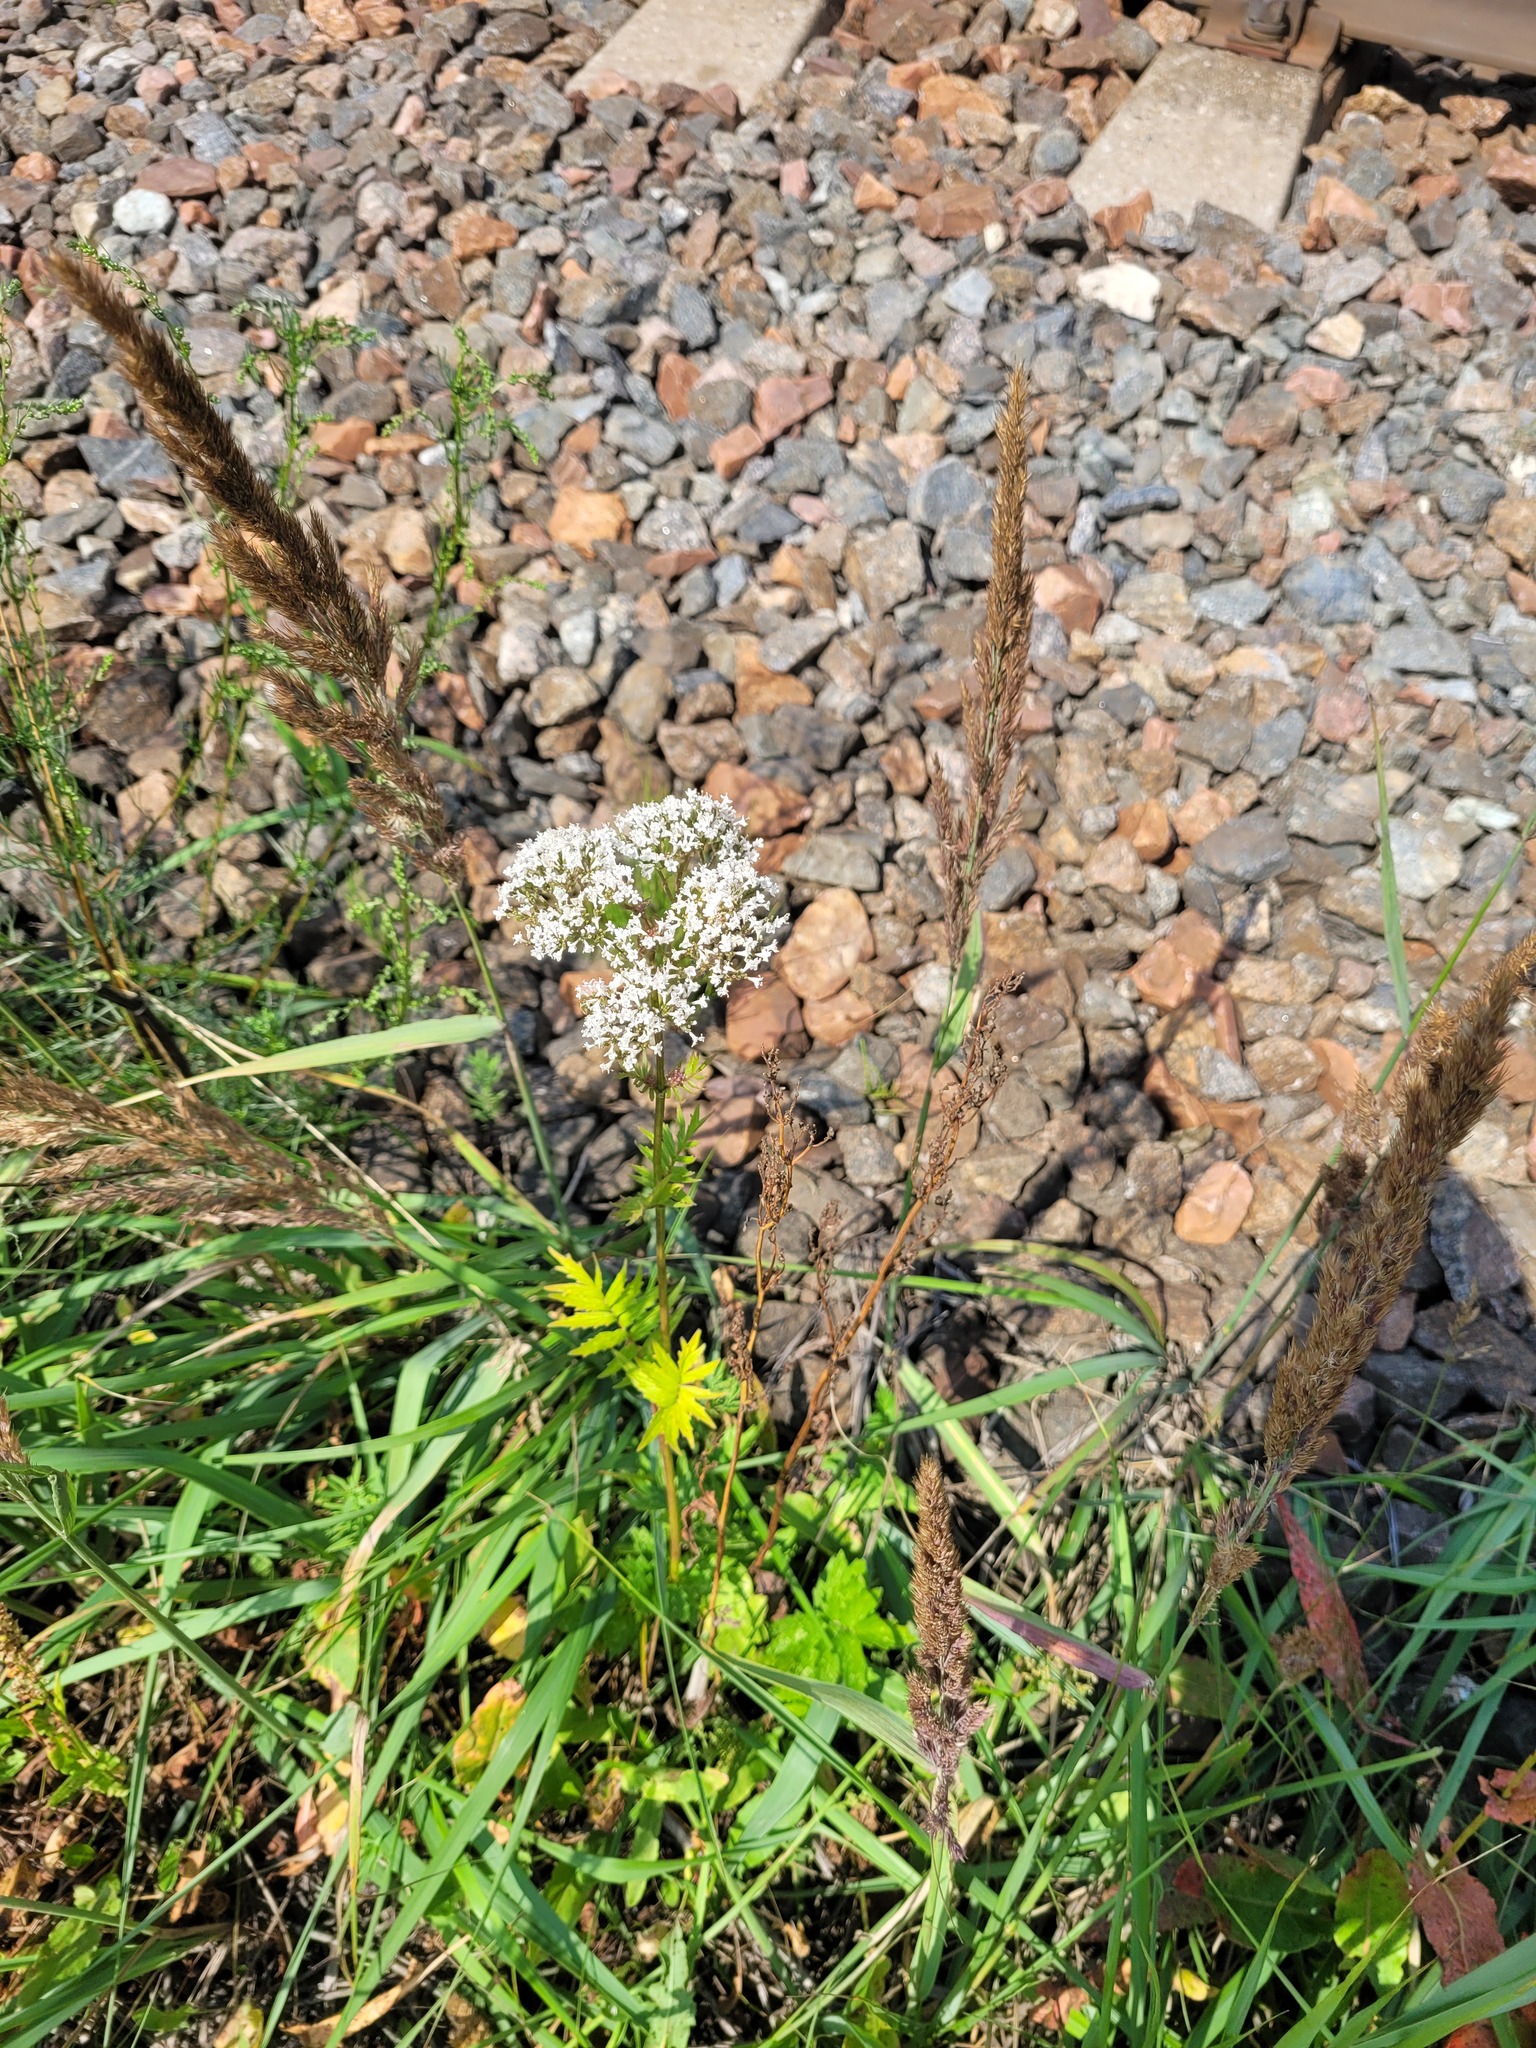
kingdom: Plantae
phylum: Tracheophyta
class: Magnoliopsida
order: Dipsacales
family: Caprifoliaceae
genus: Valeriana
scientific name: Valeriana officinalis
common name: Common valerian
